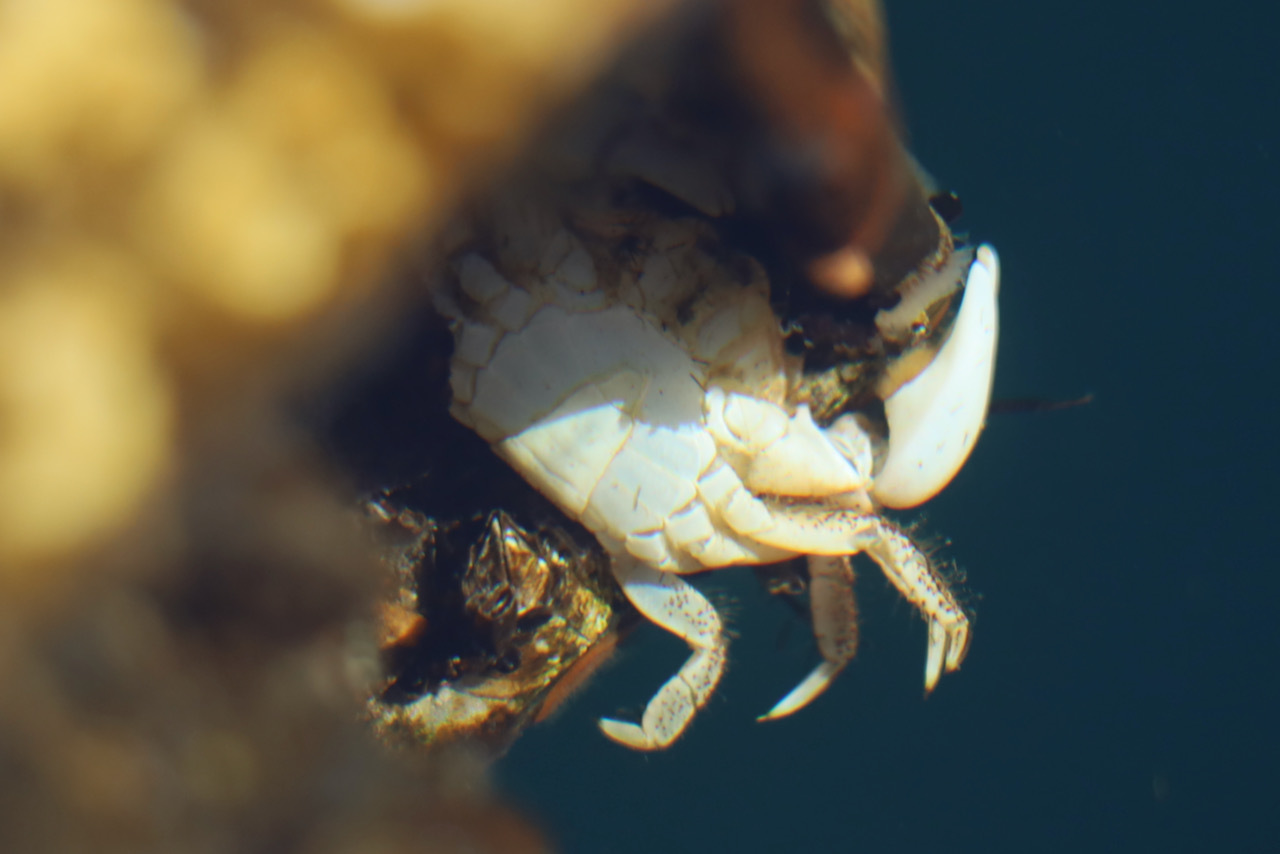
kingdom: Animalia
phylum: Arthropoda
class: Malacostraca
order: Decapoda
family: Varunidae
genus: Hemigrapsus
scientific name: Hemigrapsus oregonensis
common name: Yellow shore crab
